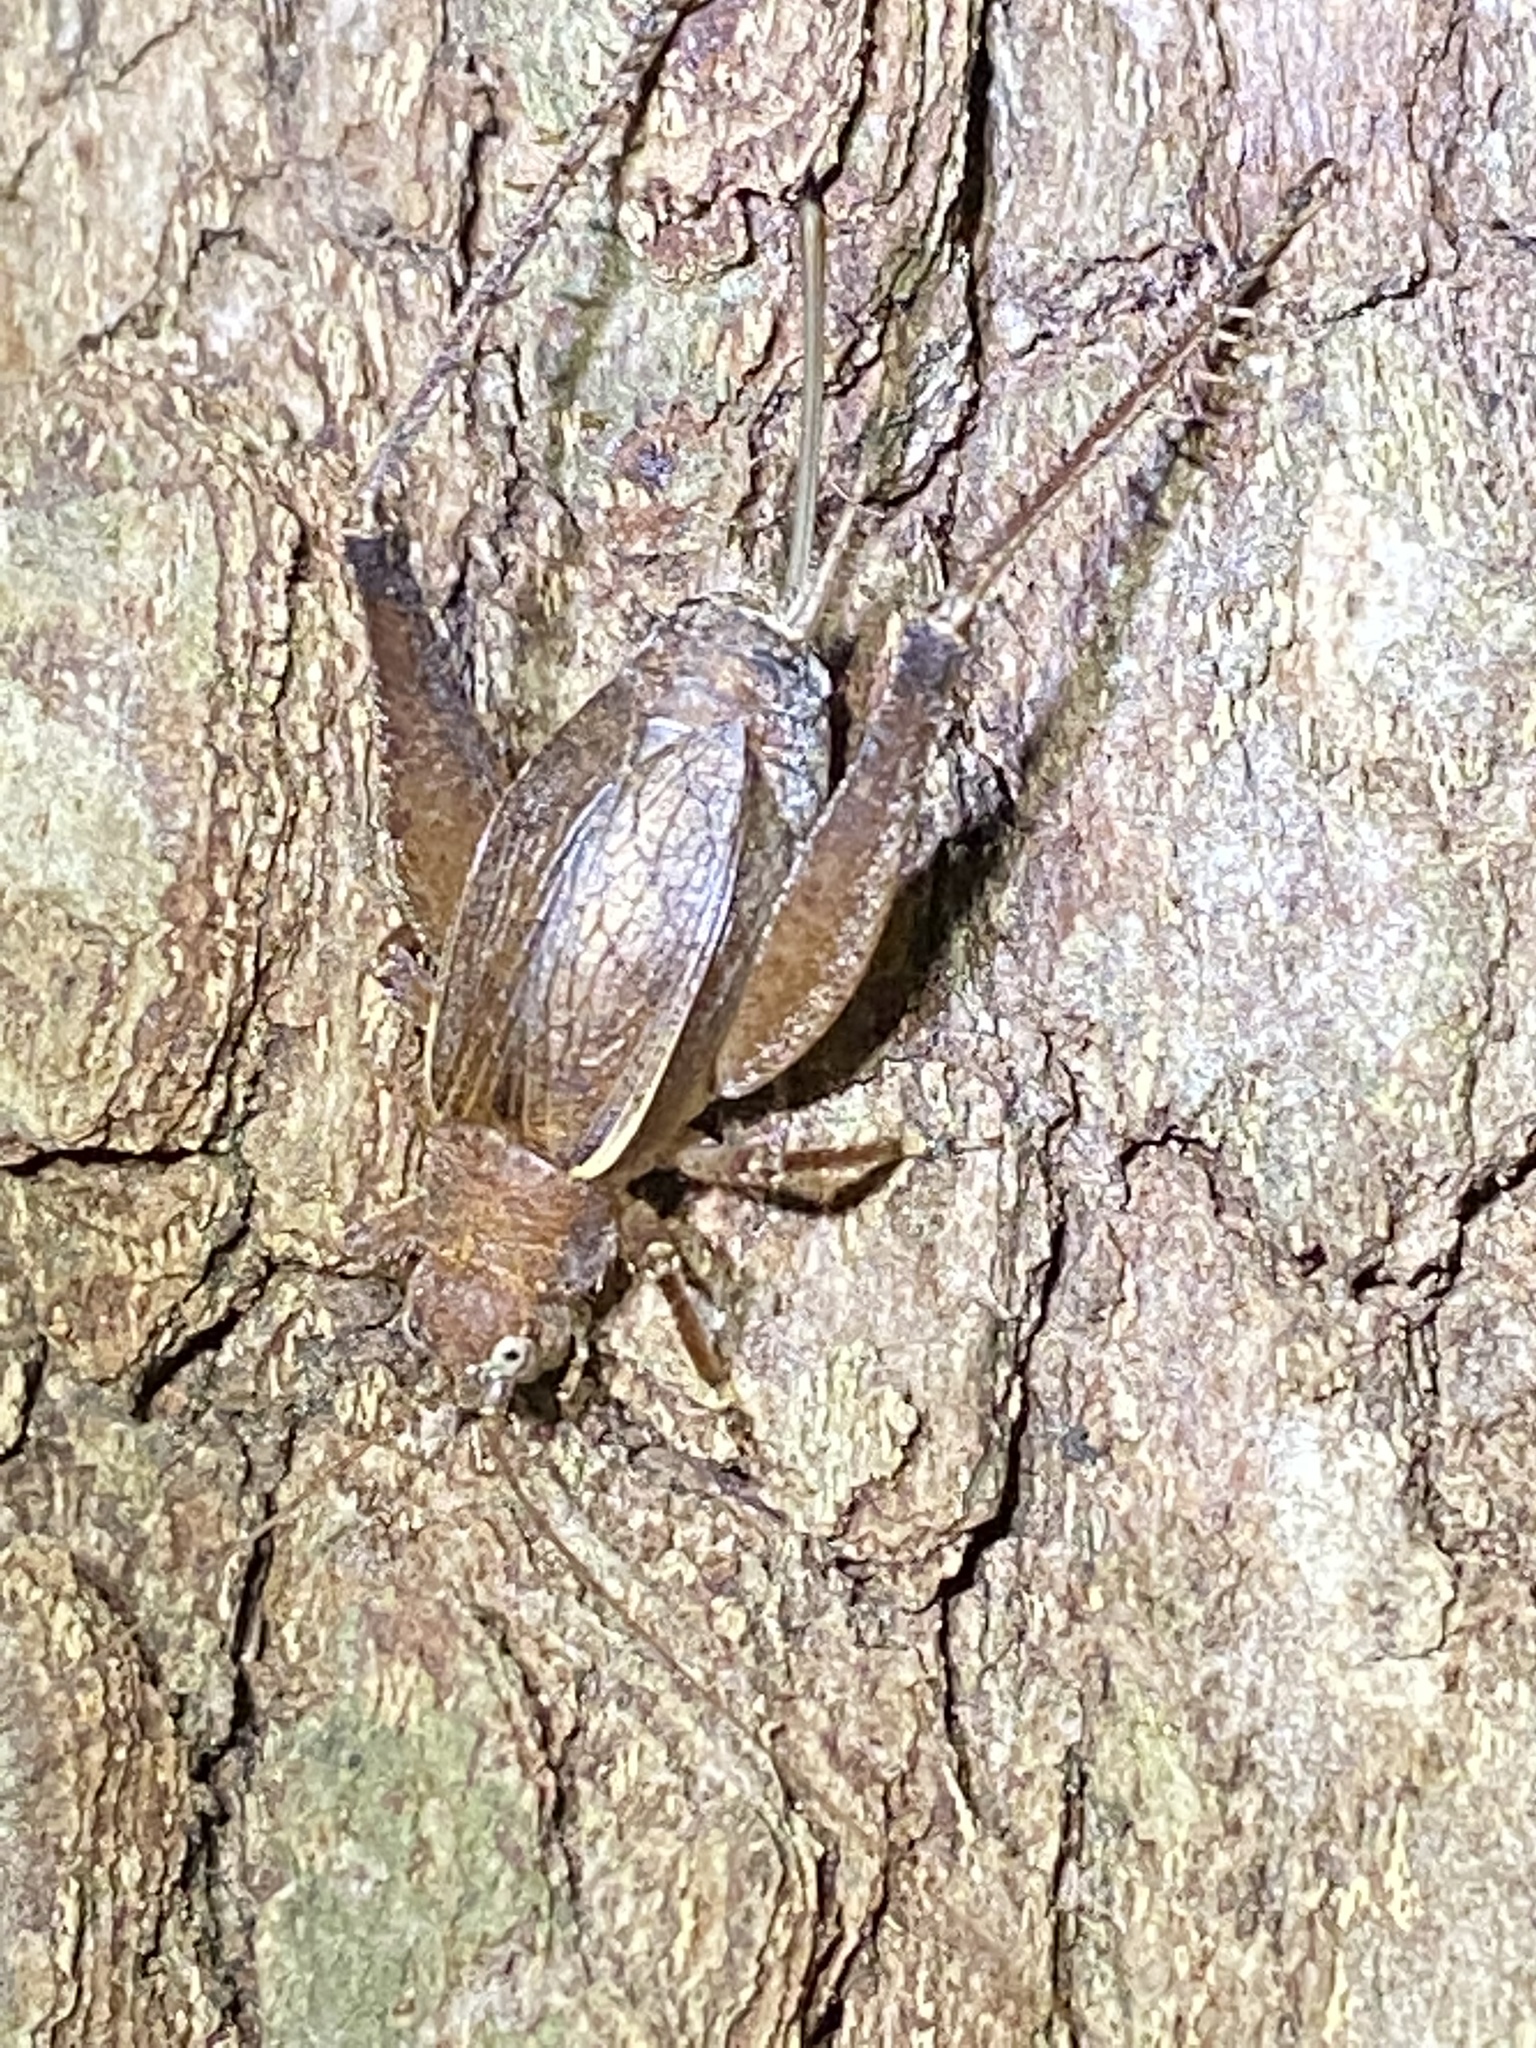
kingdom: Animalia
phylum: Arthropoda
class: Insecta
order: Orthoptera
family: Gryllidae
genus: Hapithus
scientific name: Hapithus agitator
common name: Restless bush cricket
